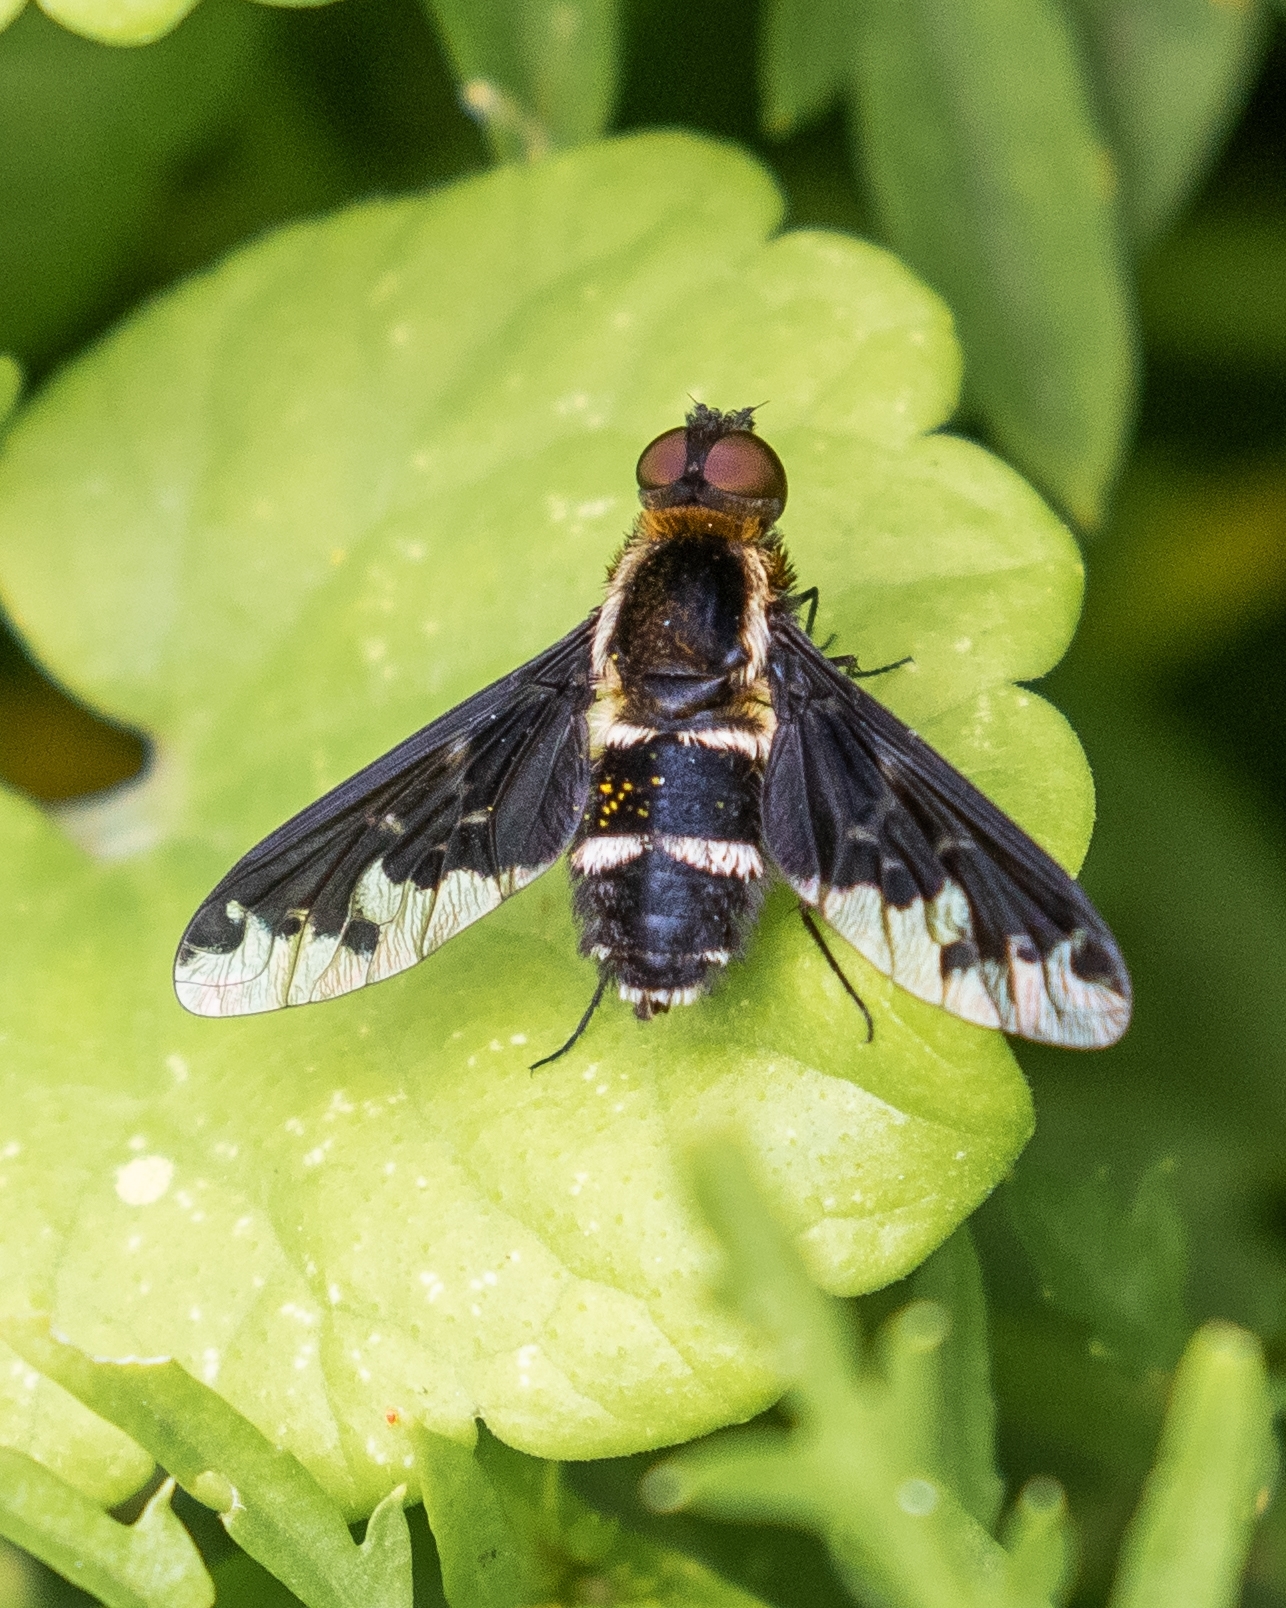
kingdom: Animalia
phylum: Arthropoda
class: Insecta
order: Diptera
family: Bombyliidae
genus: Hemipenthes
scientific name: Hemipenthes maura
